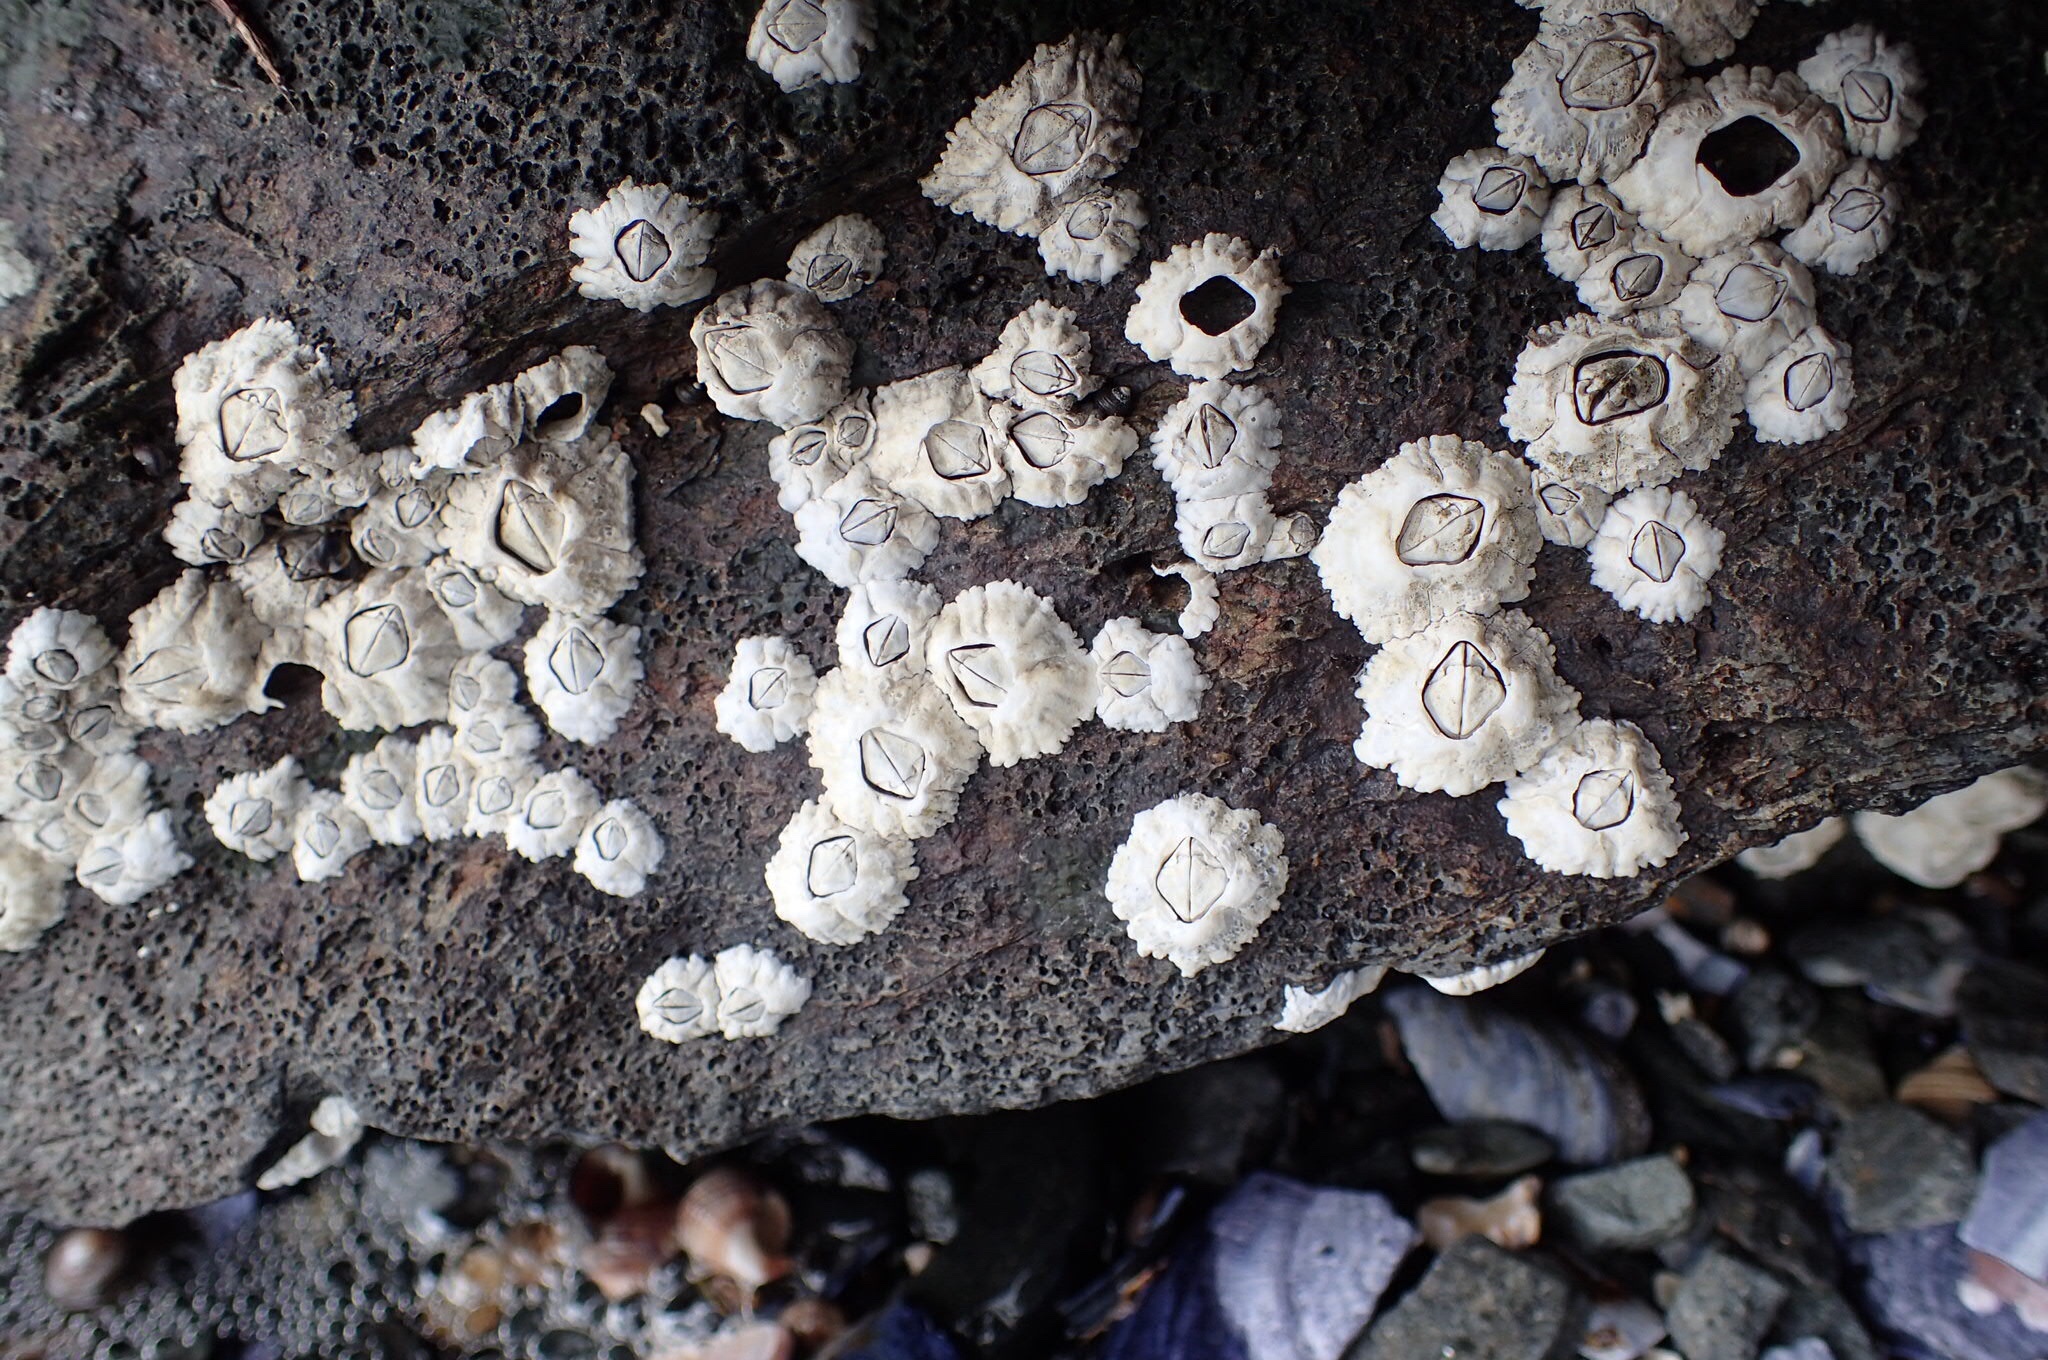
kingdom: Animalia
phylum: Arthropoda
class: Maxillopoda
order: Sessilia
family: Archaeobalanidae
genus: Semibalanus
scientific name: Semibalanus balanoides
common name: Acorn barnacle
